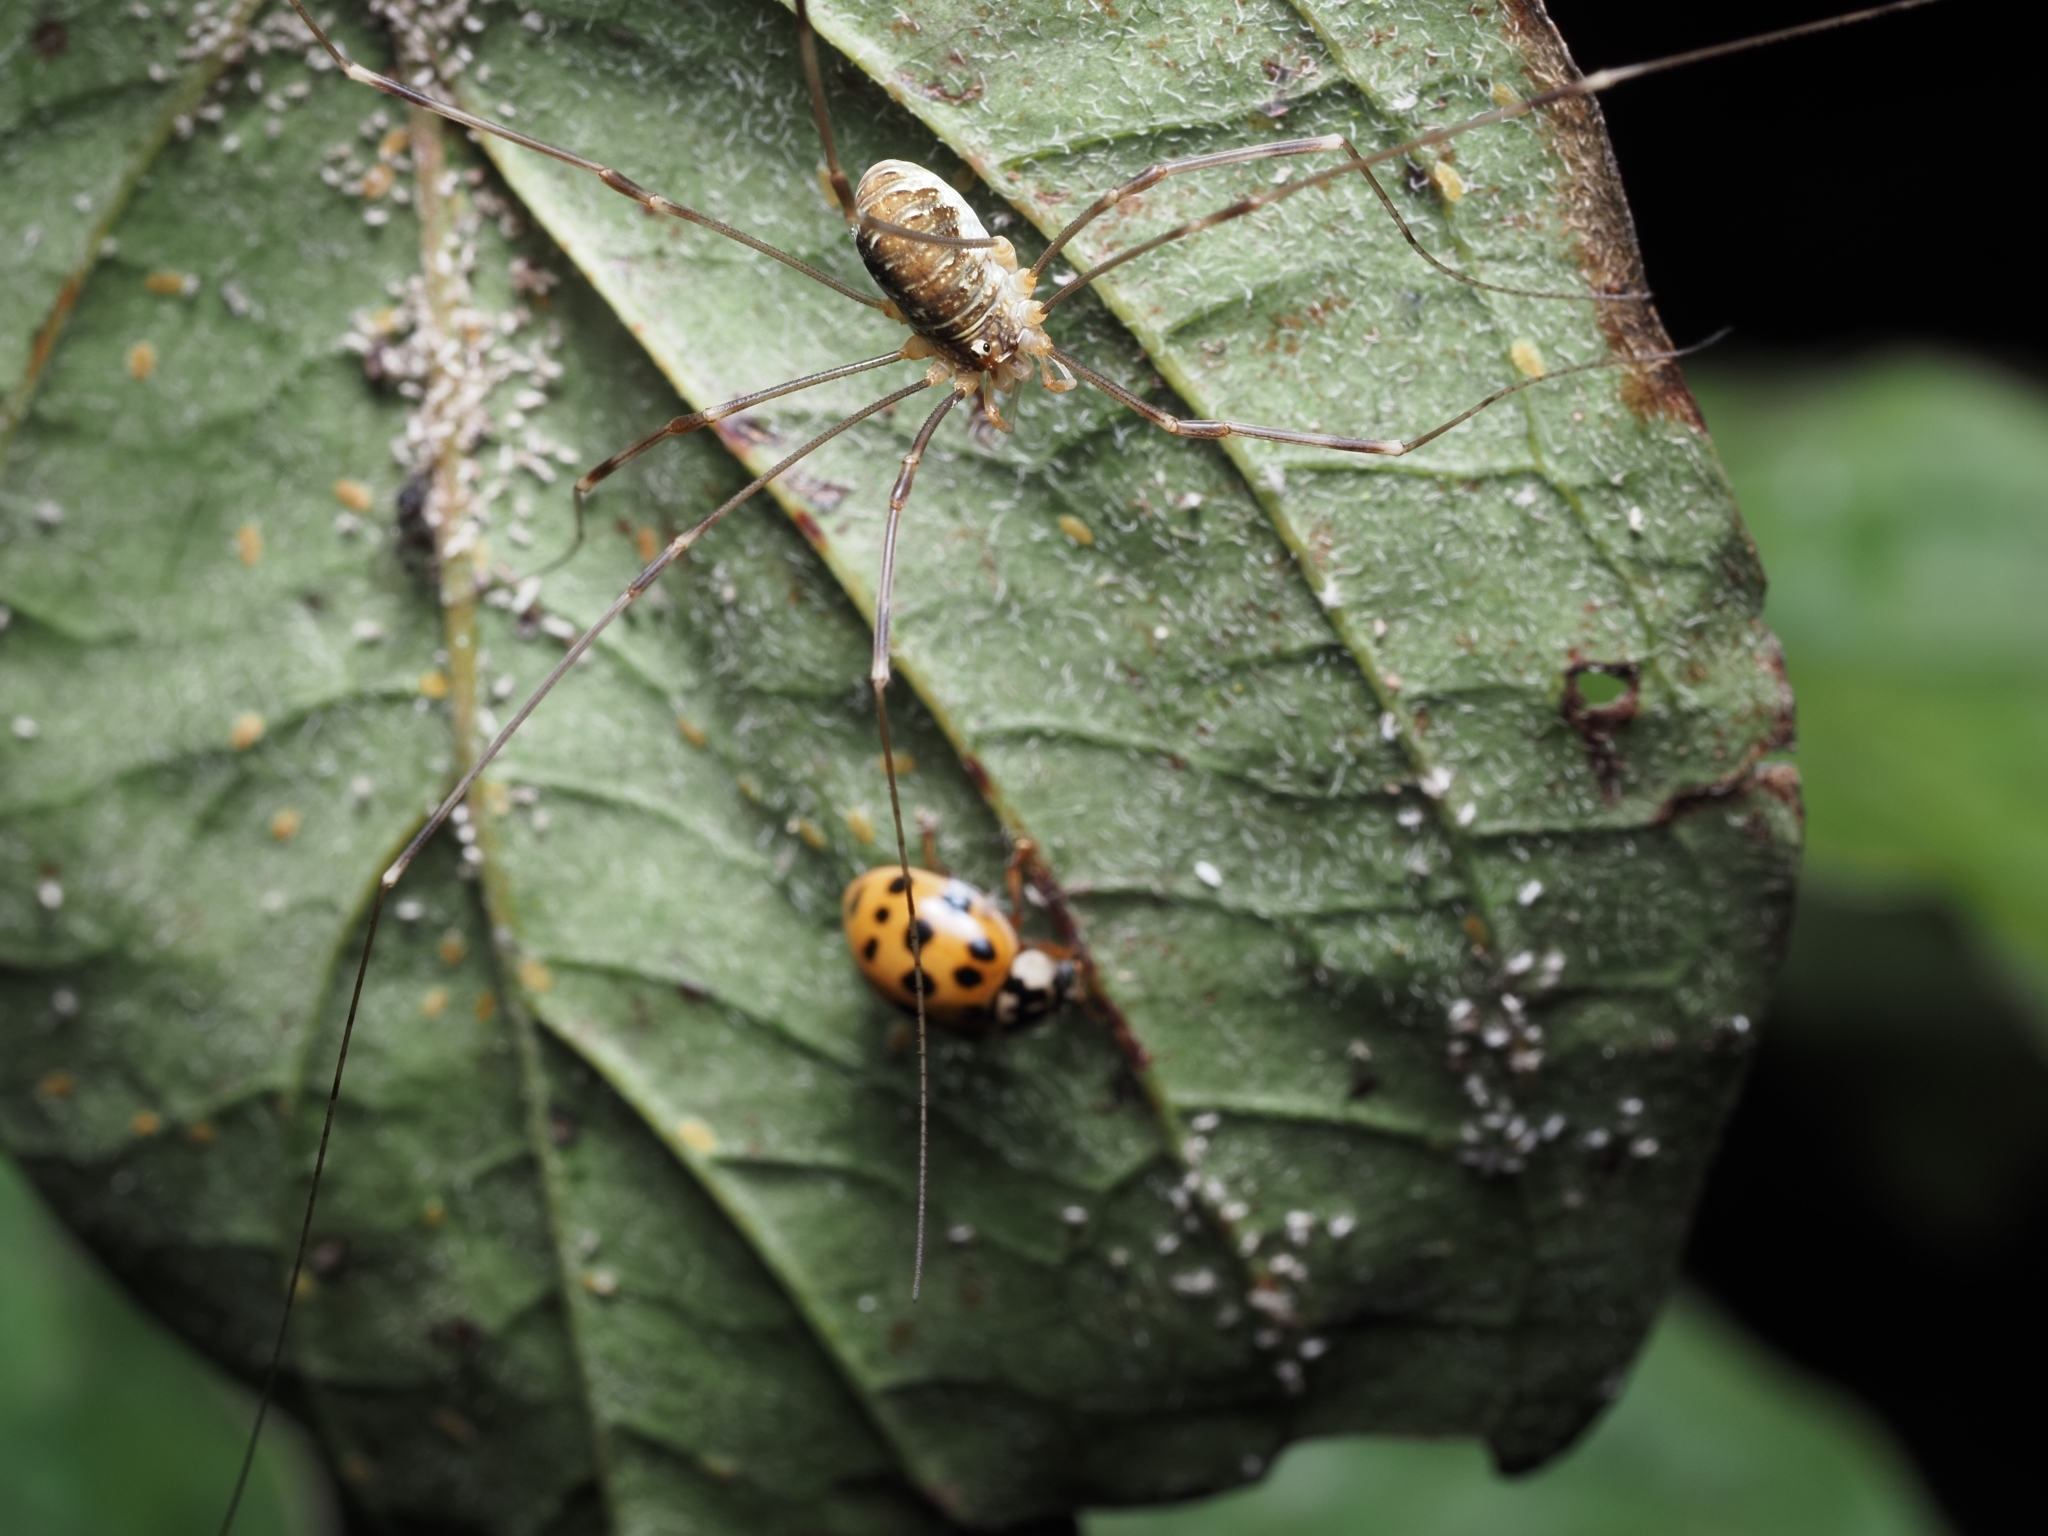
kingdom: Animalia
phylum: Arthropoda
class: Arachnida
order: Opiliones
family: Phalangiidae
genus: Opilio
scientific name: Opilio canestrinii
